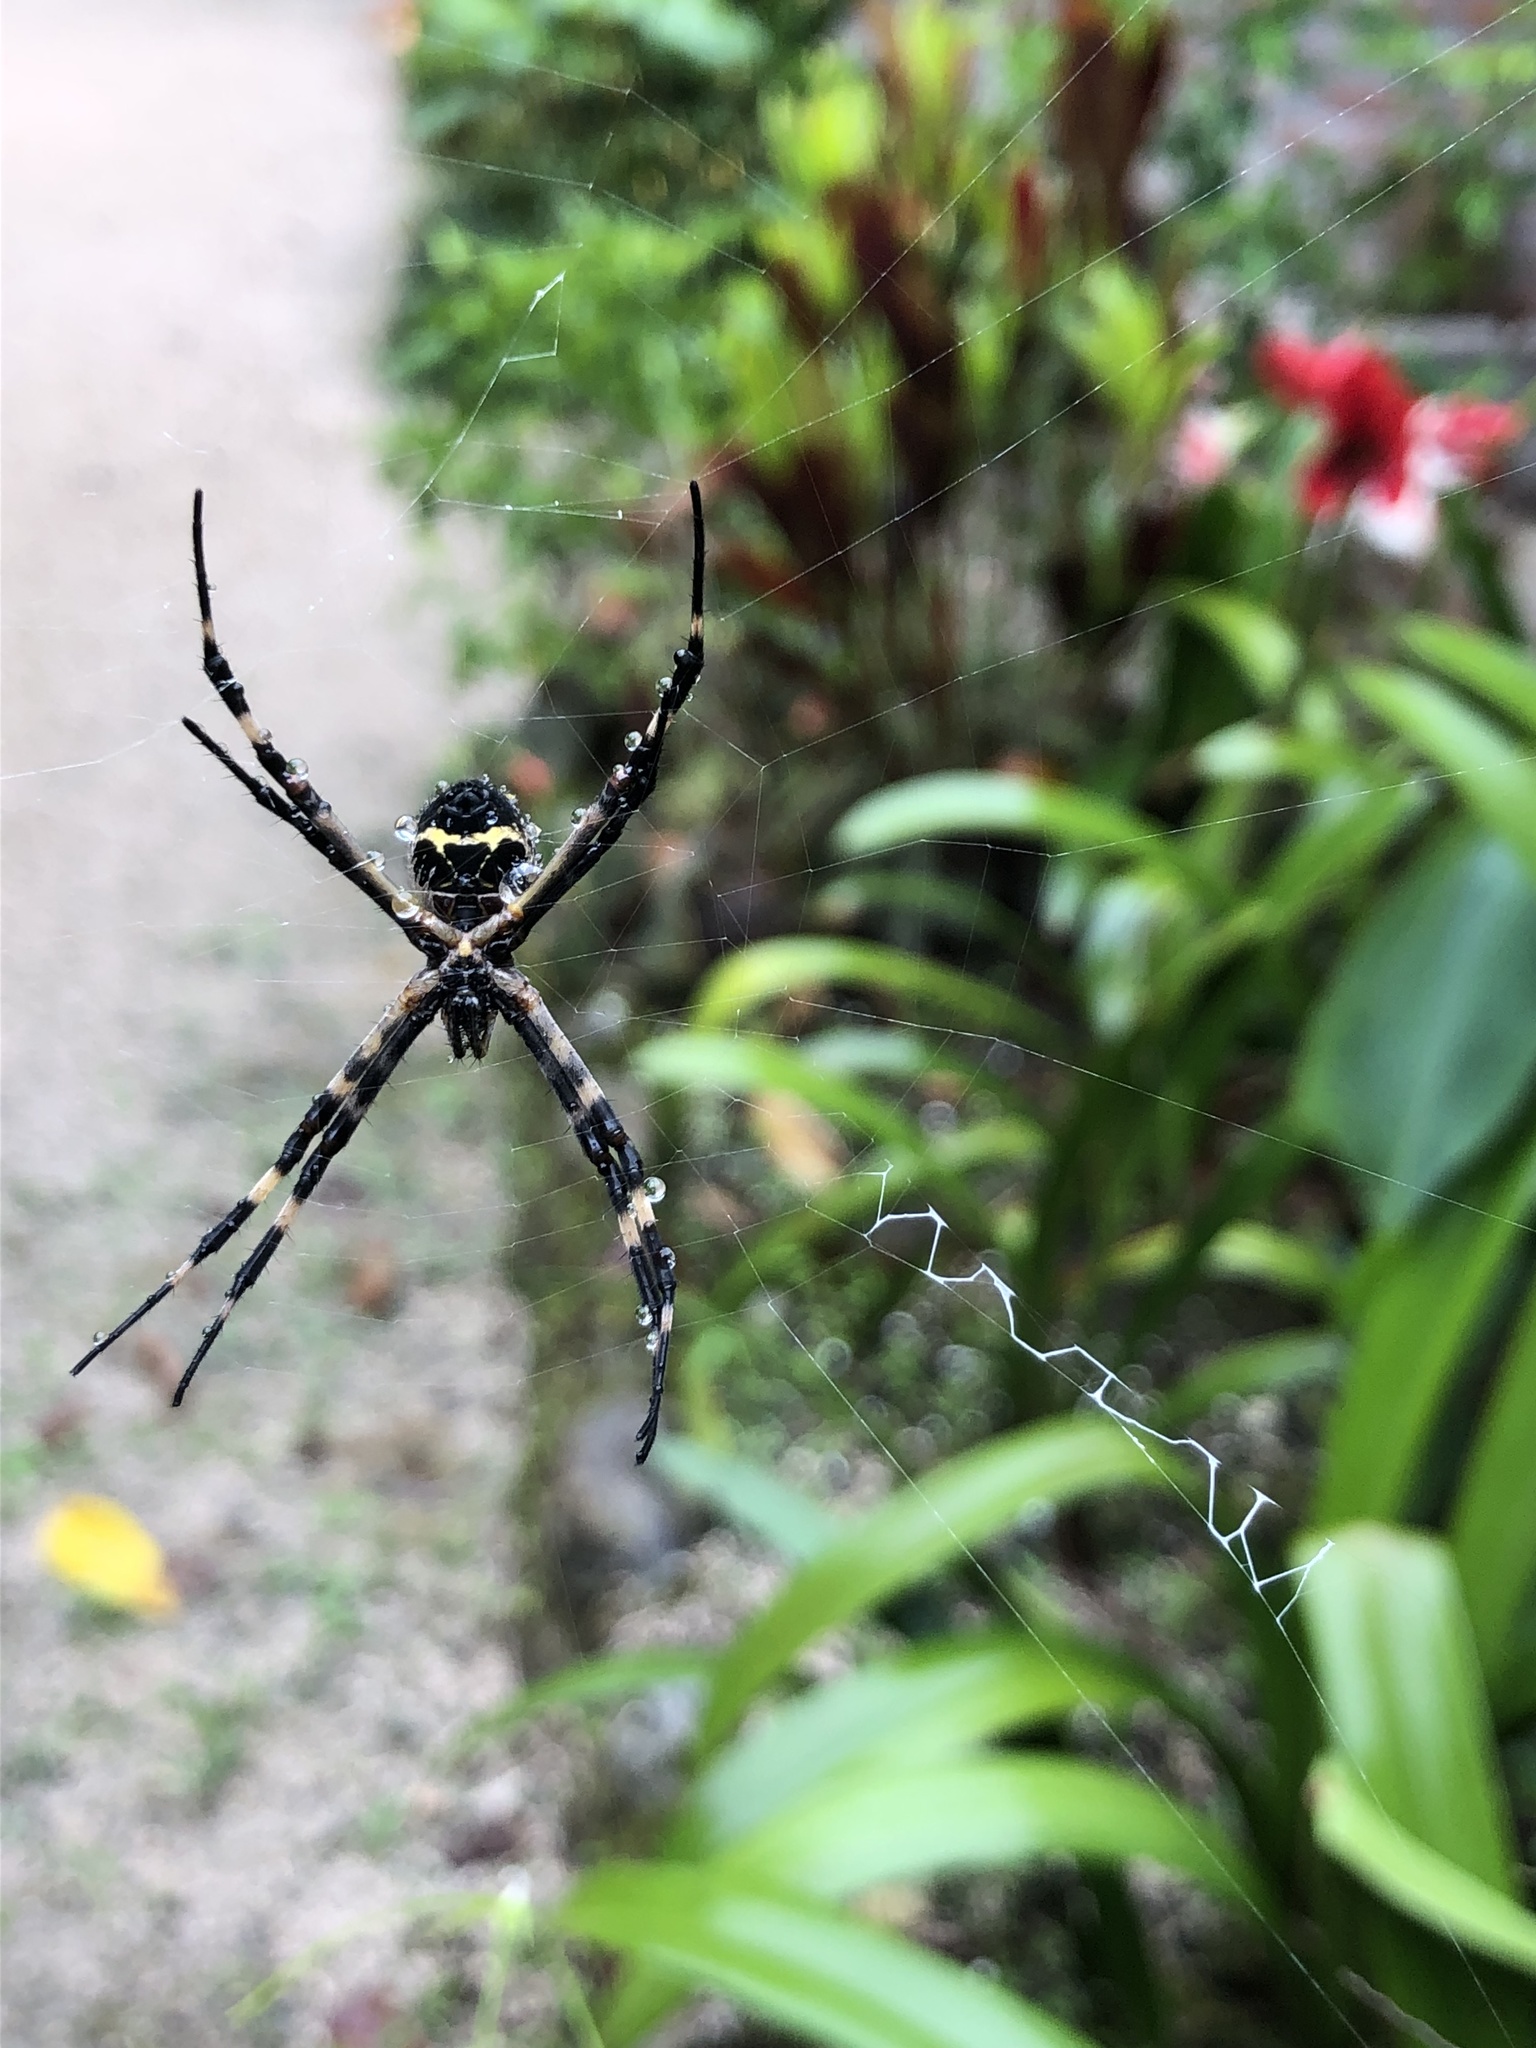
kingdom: Animalia
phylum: Arthropoda
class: Arachnida
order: Araneae
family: Araneidae
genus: Argiope
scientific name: Argiope argentata
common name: Orb weavers
